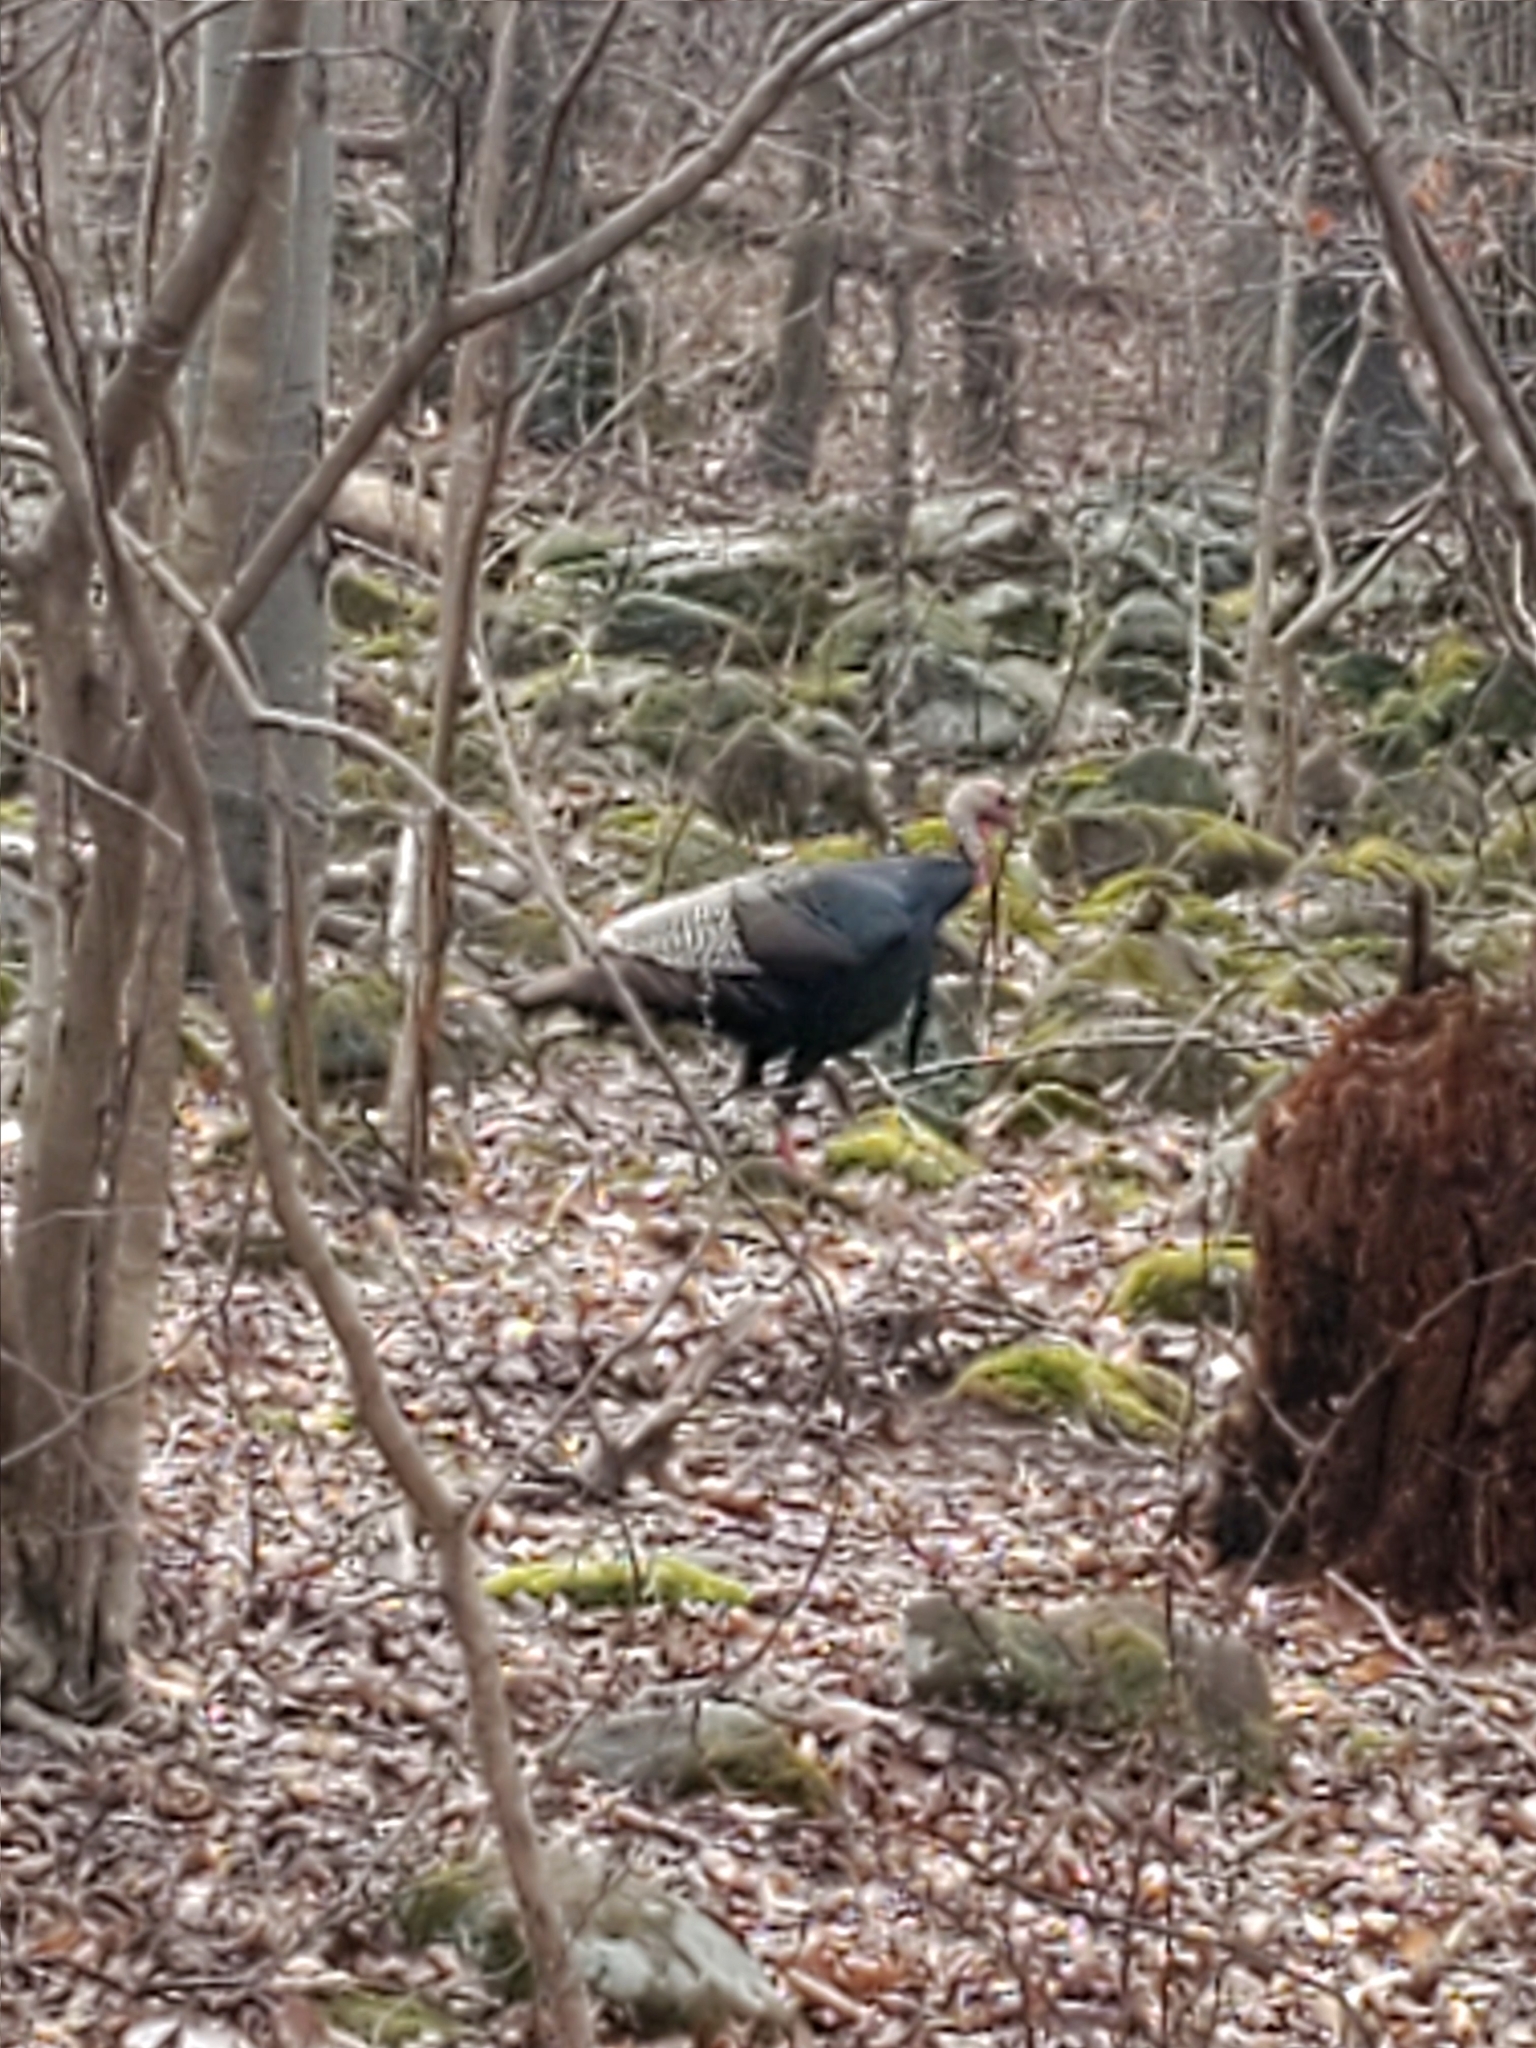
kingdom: Animalia
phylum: Chordata
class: Aves
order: Galliformes
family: Phasianidae
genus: Meleagris
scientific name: Meleagris gallopavo
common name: Wild turkey
